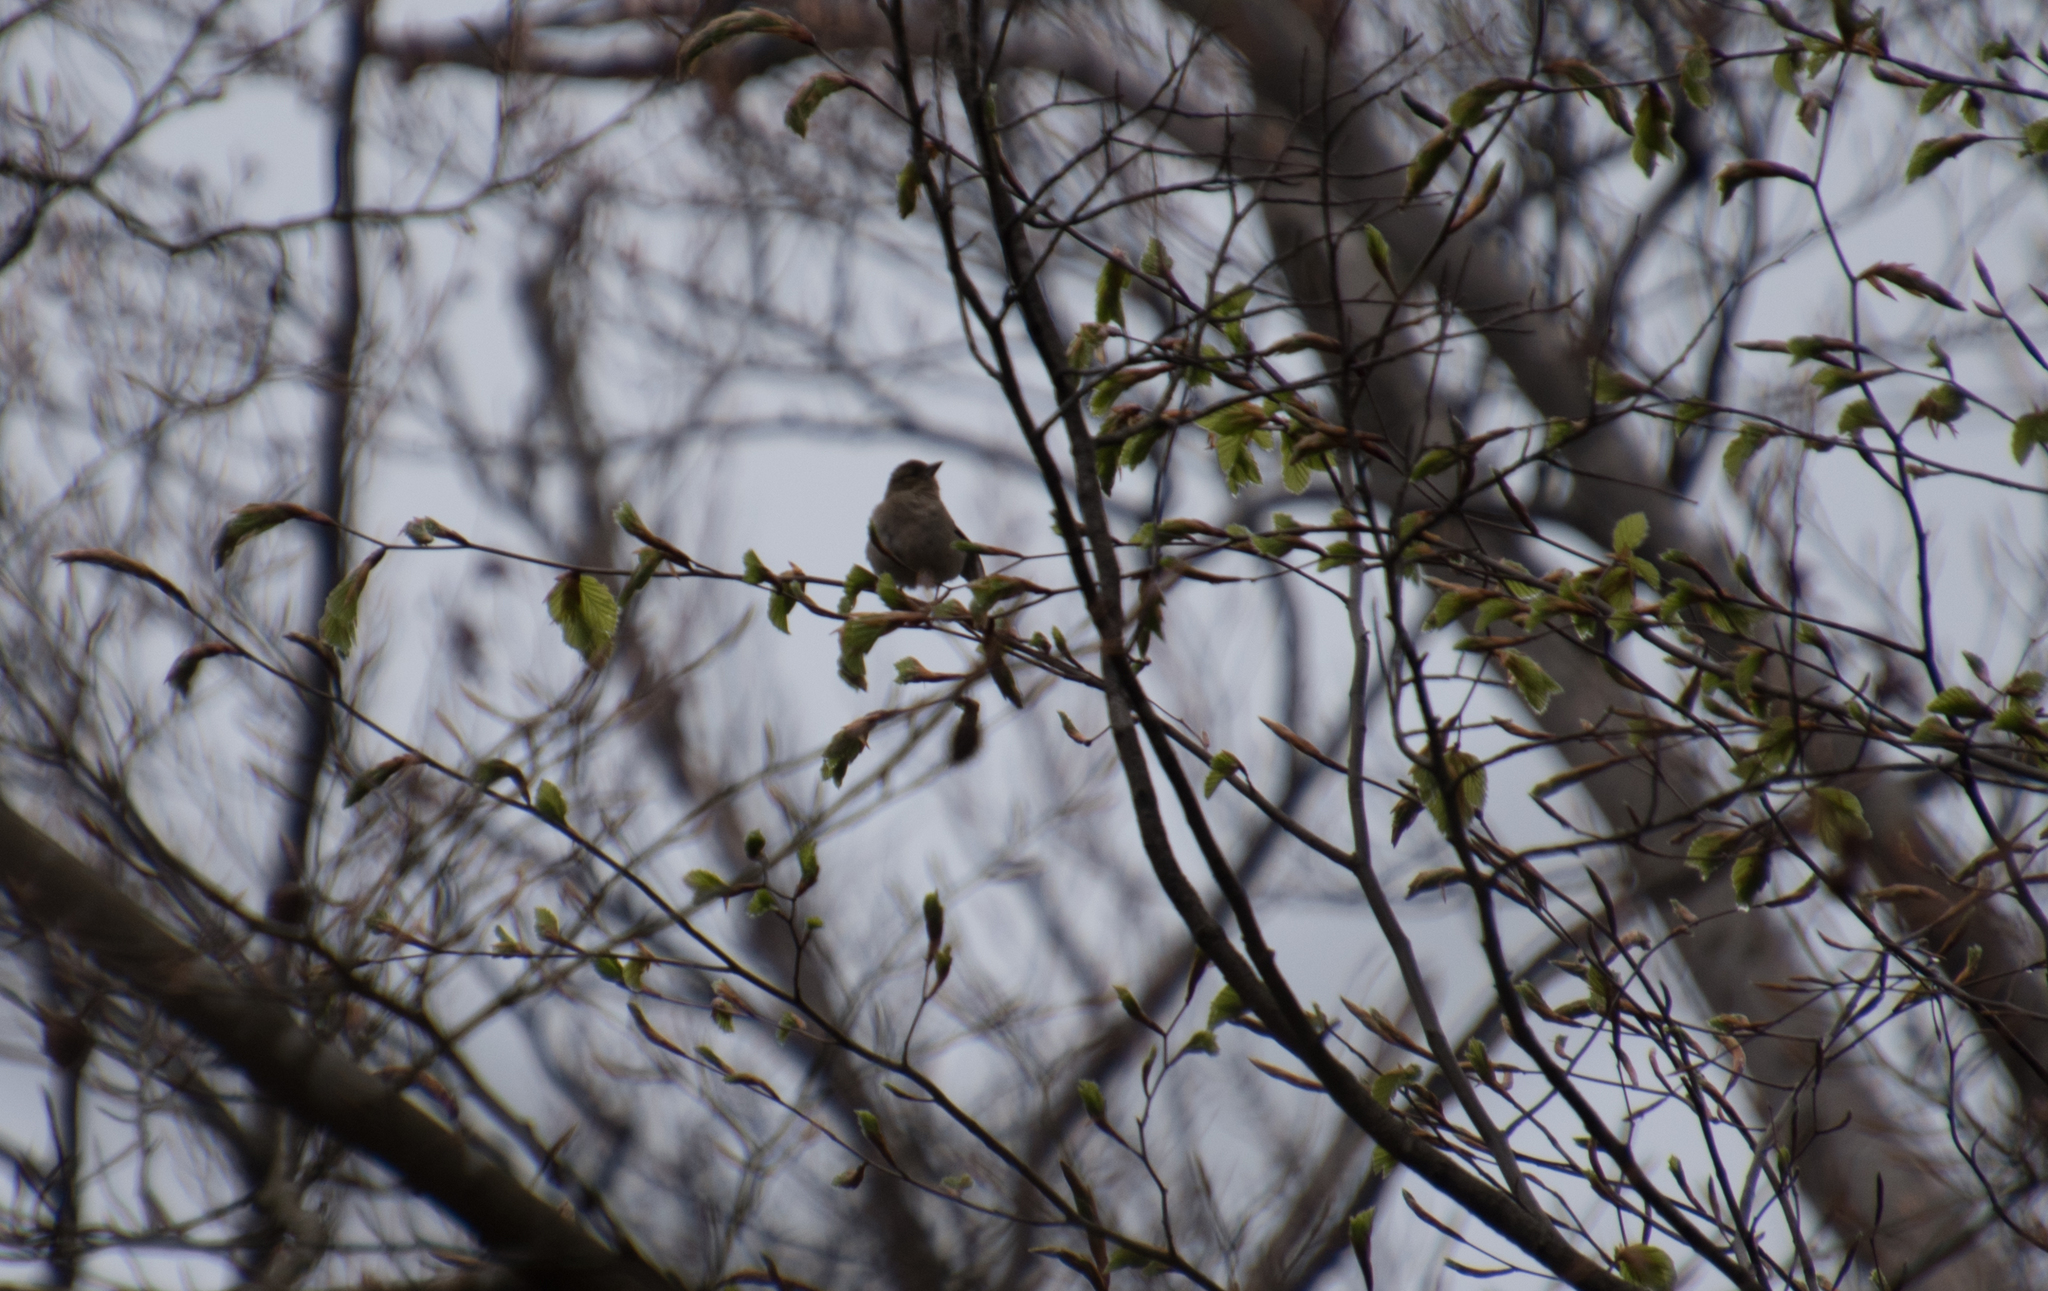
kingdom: Animalia
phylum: Chordata
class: Aves
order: Passeriformes
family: Fringillidae
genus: Fringilla
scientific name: Fringilla coelebs
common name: Common chaffinch
